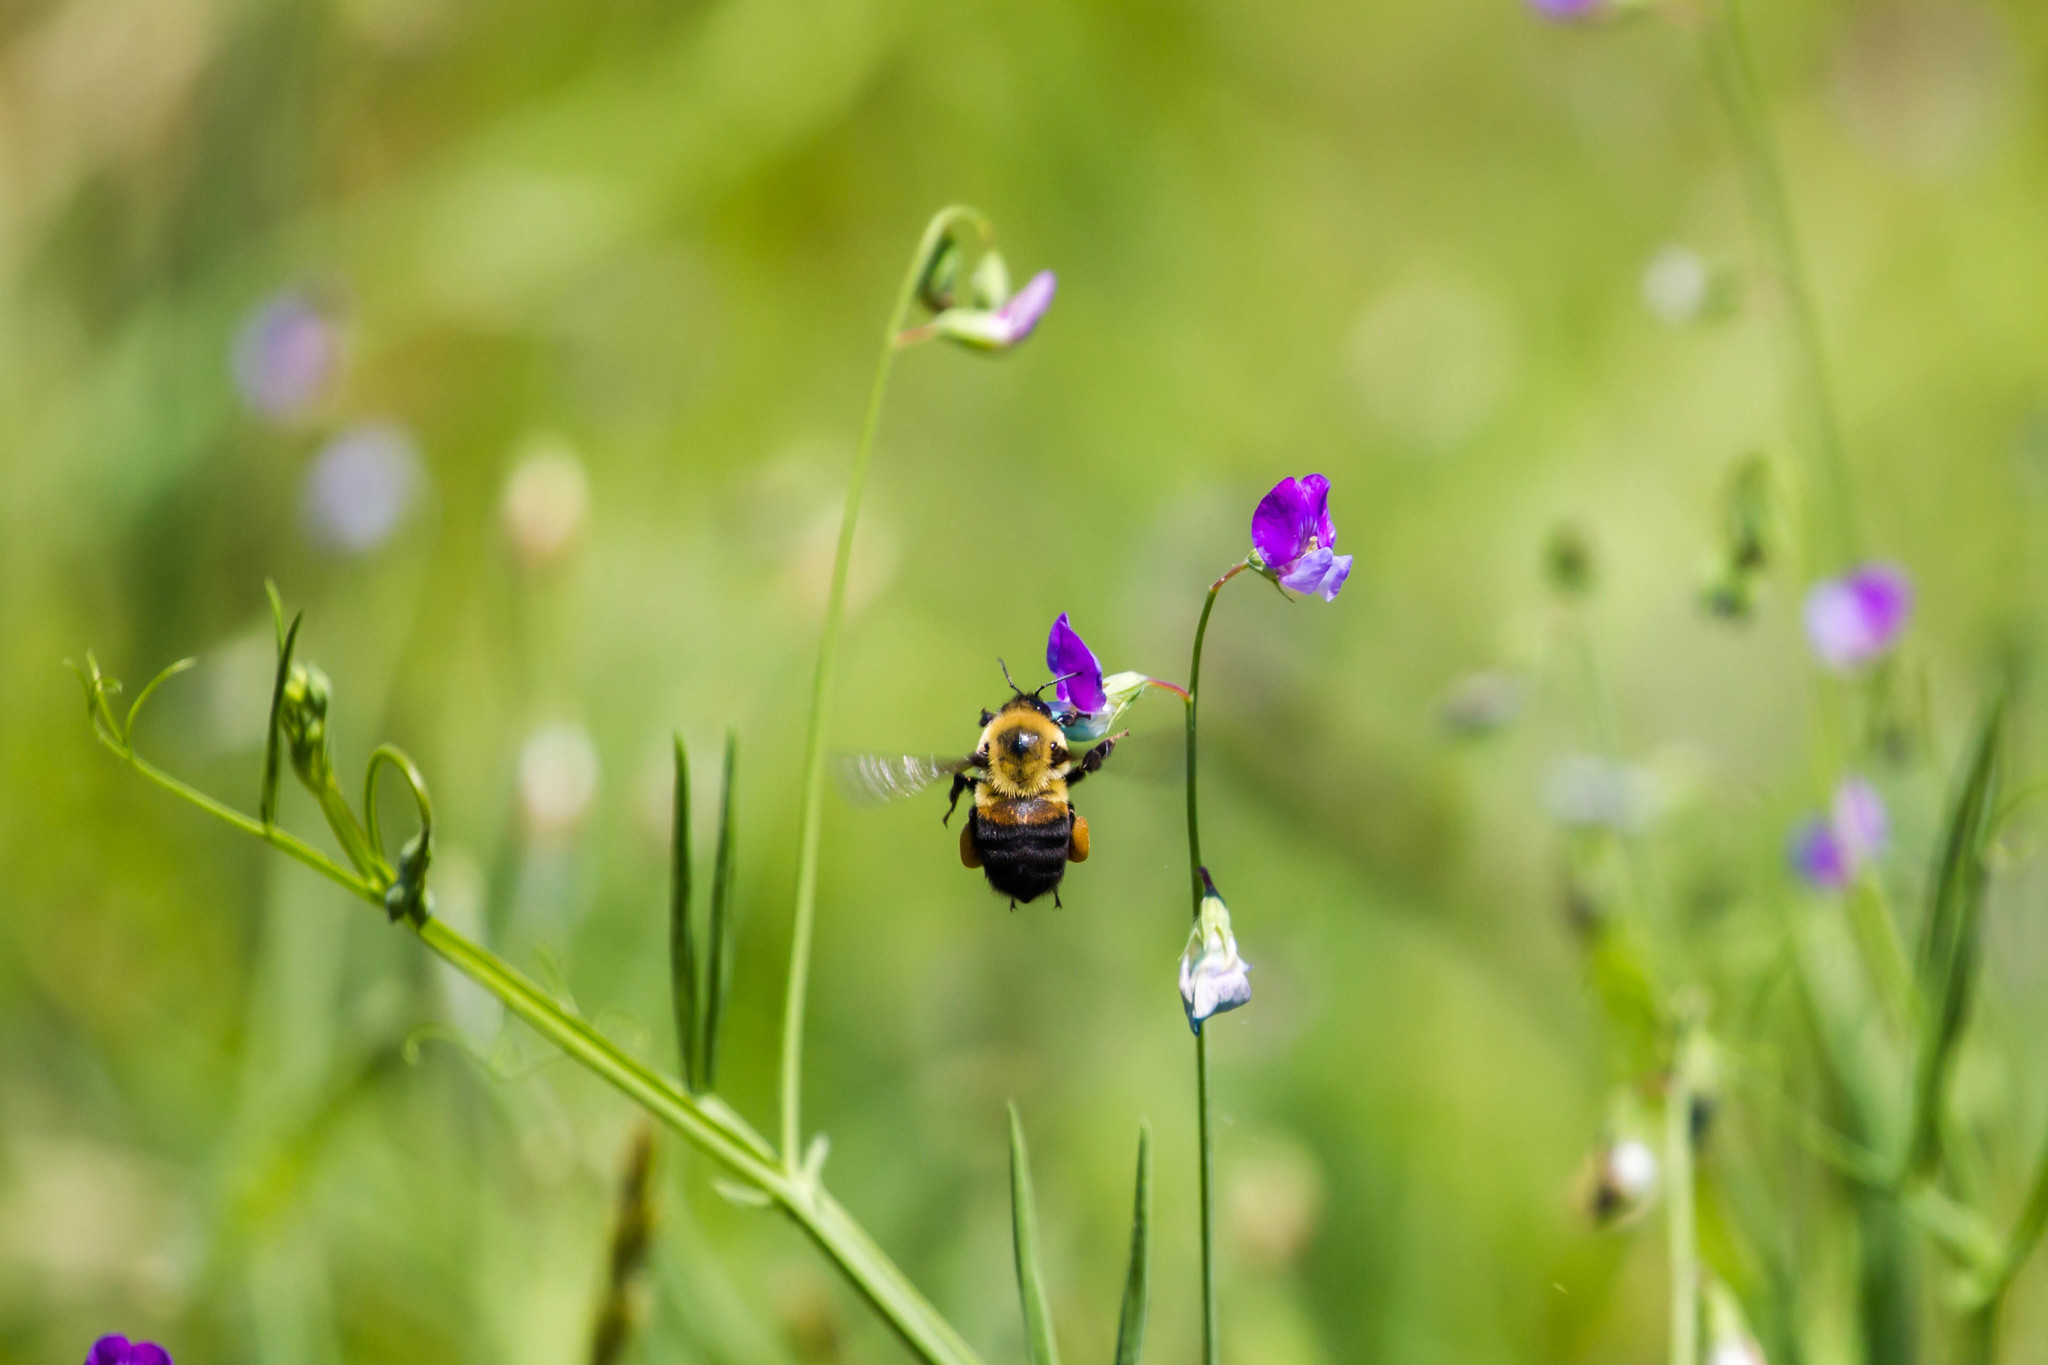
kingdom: Animalia
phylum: Arthropoda
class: Insecta
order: Hymenoptera
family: Apidae
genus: Bombus
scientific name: Bombus griseocollis
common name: Brown-belted bumble bee
